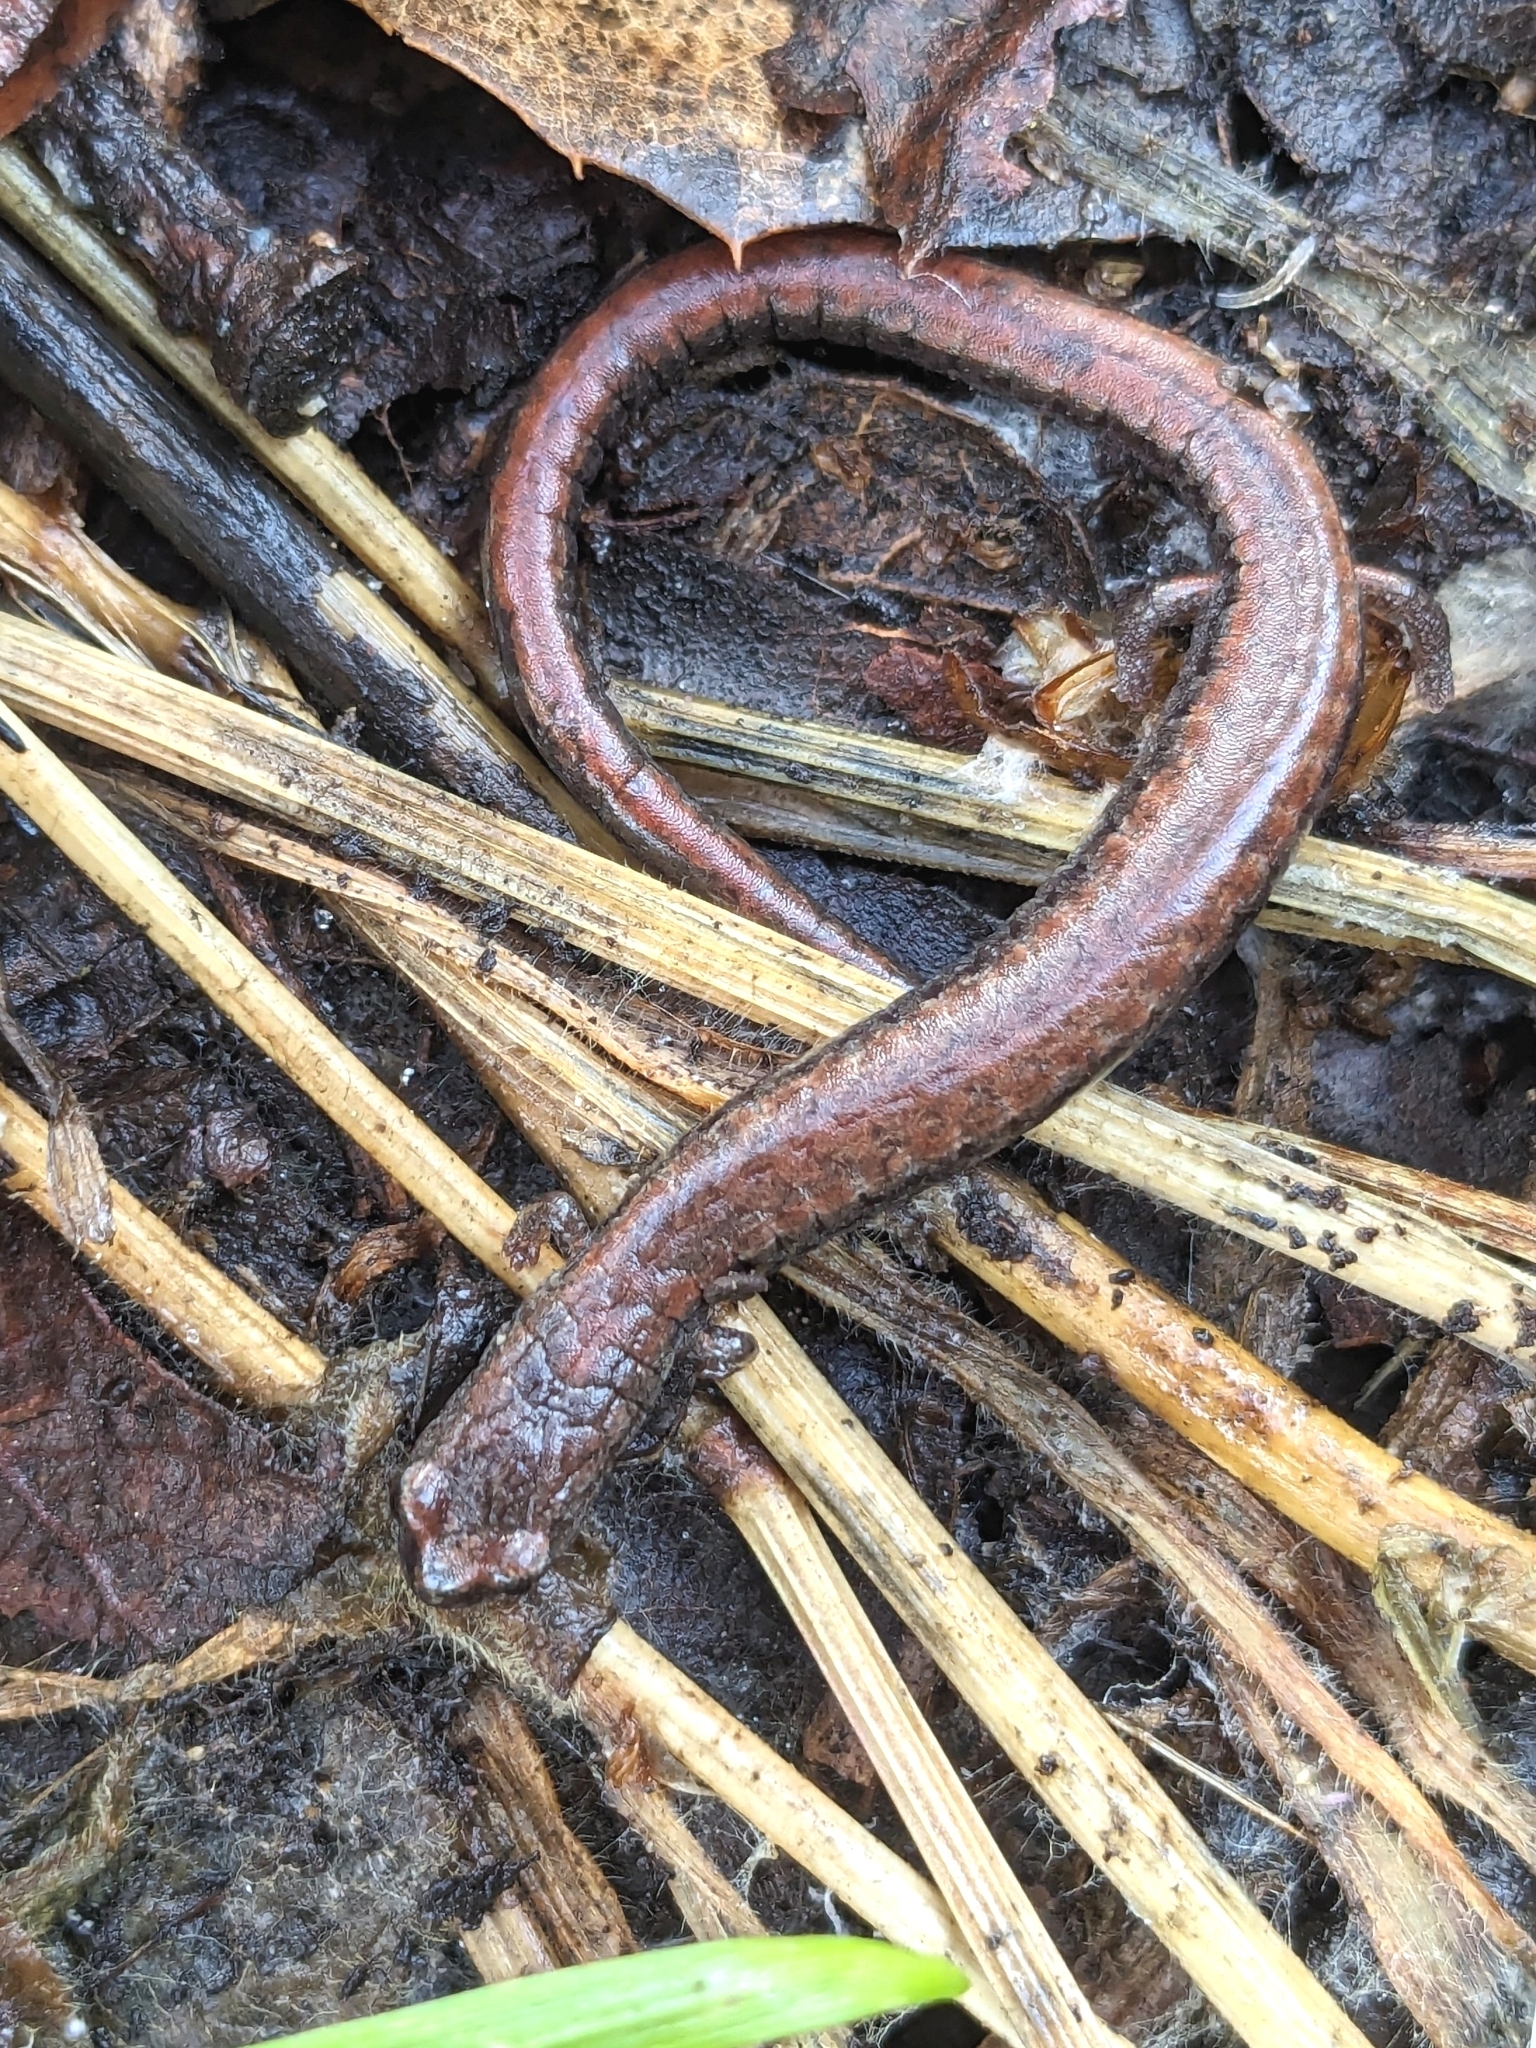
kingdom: Animalia
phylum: Chordata
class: Amphibia
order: Caudata
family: Plethodontidae
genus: Batrachoseps
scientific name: Batrachoseps attenuatus
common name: California slender salamander
